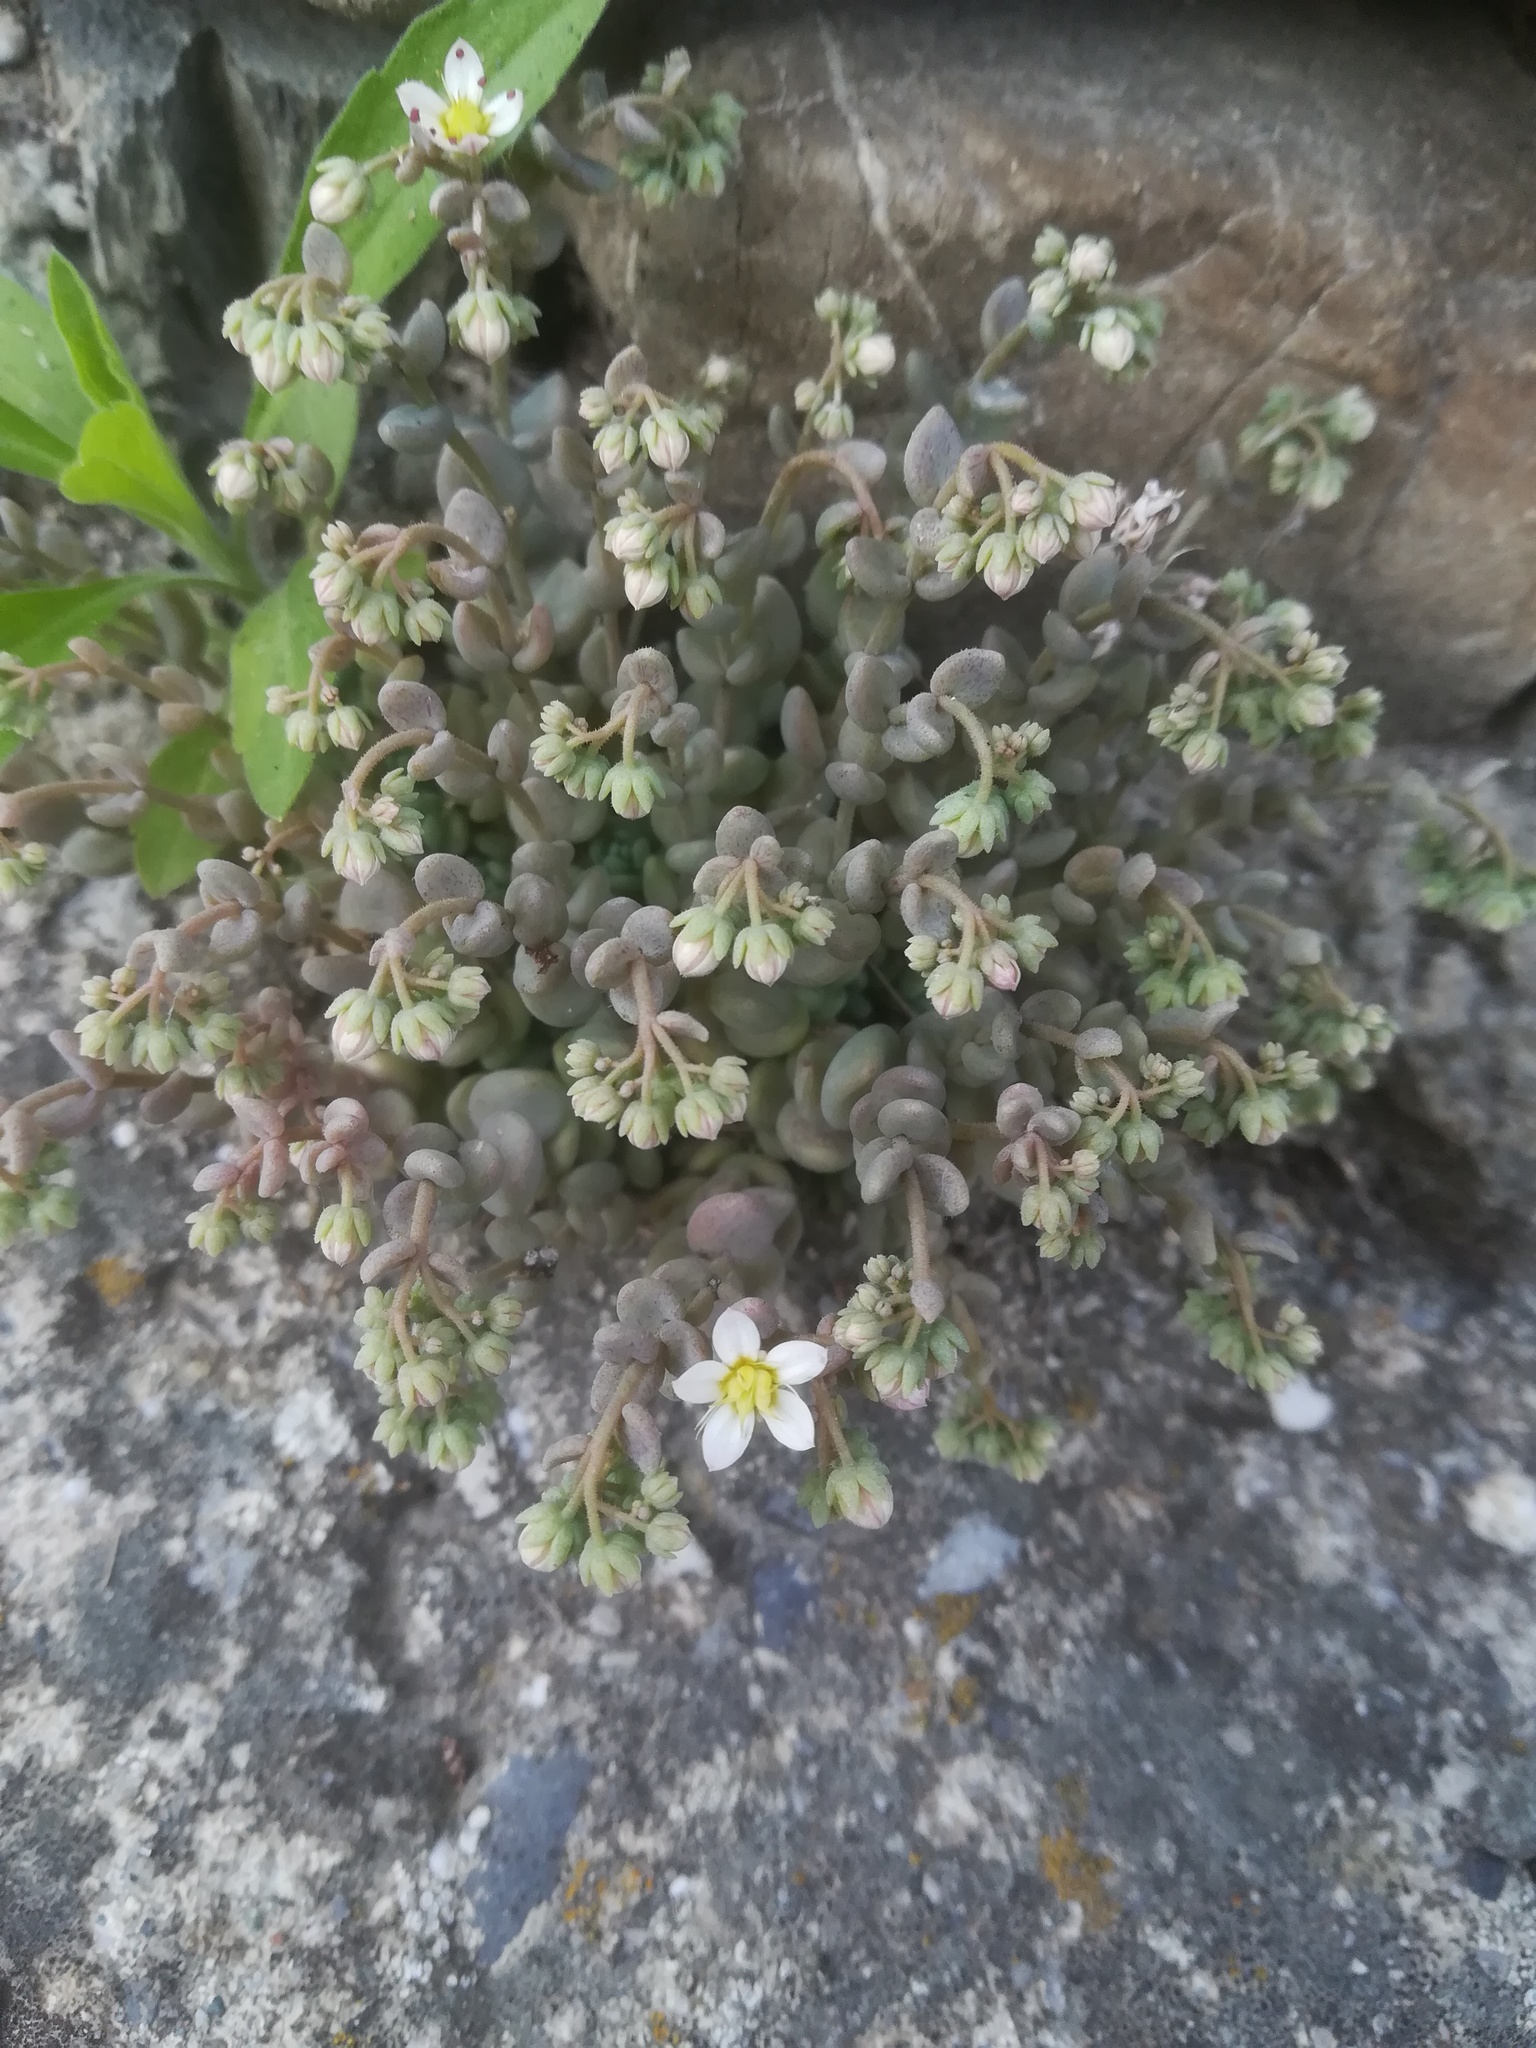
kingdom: Plantae
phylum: Tracheophyta
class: Magnoliopsida
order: Saxifragales
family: Crassulaceae
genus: Sedum
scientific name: Sedum dasyphyllum
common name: Thick-leaf stonecrop
